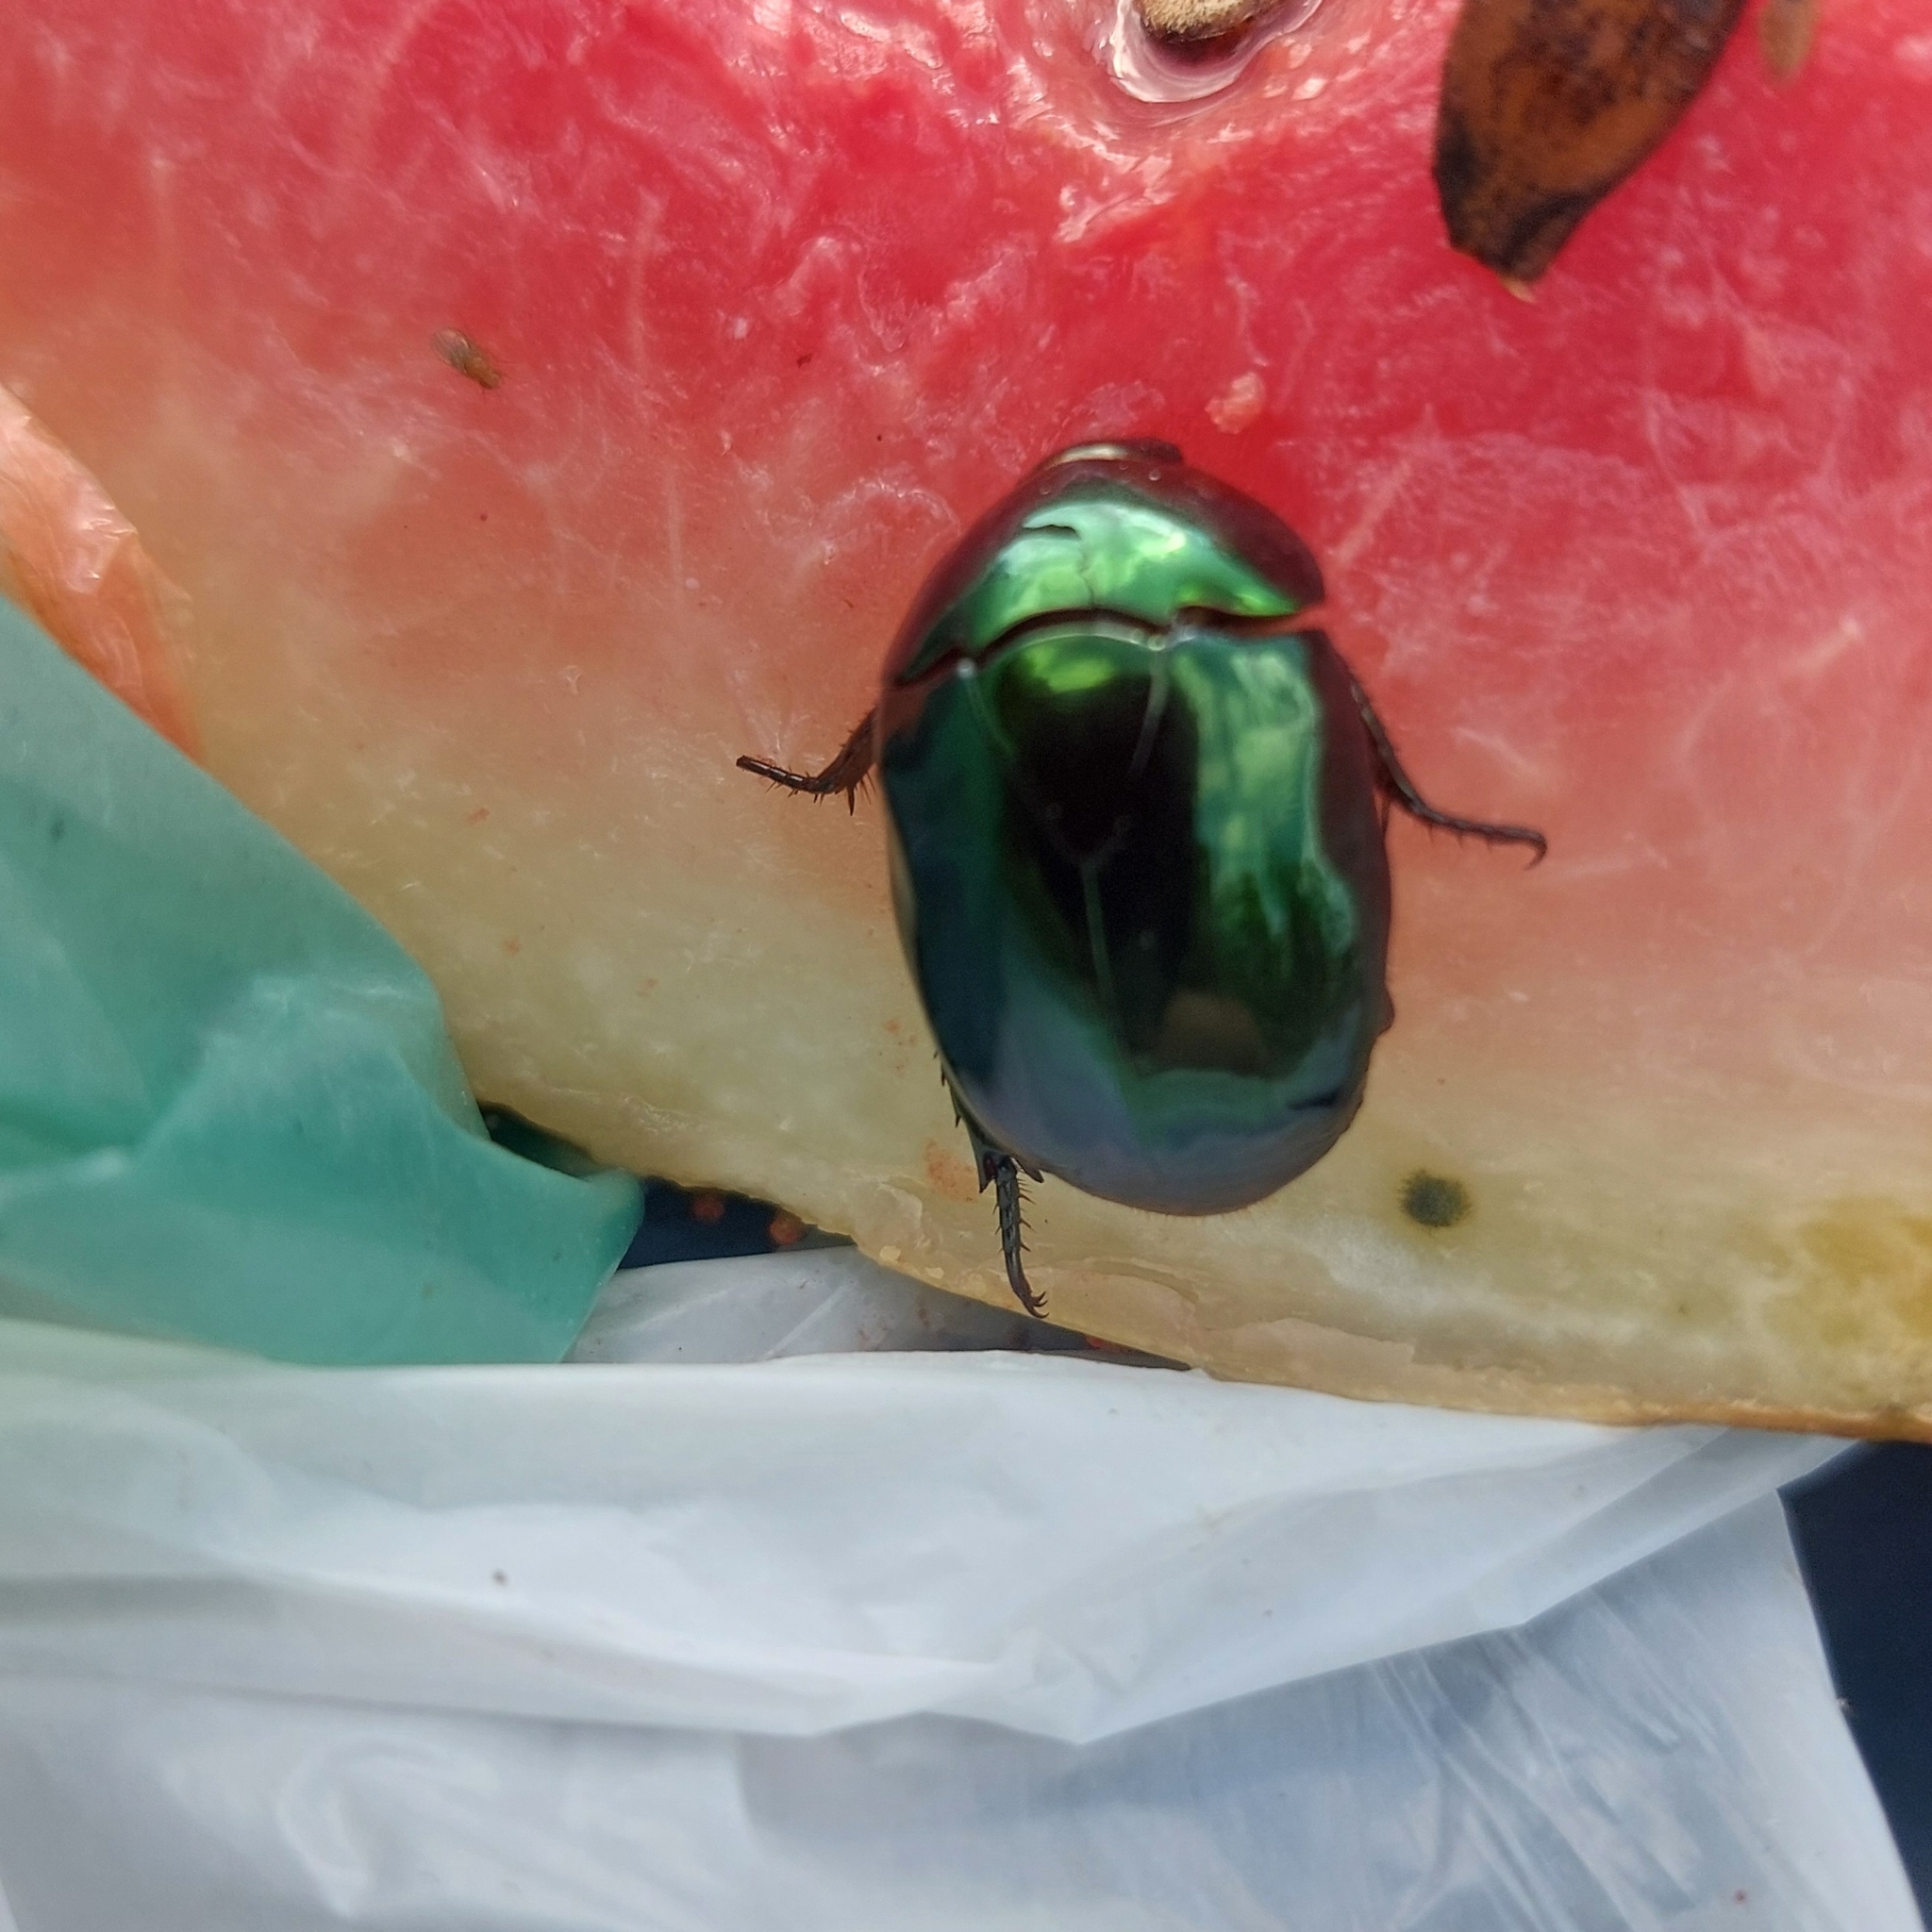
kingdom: Animalia
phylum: Arthropoda
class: Insecta
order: Coleoptera
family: Scarabaeidae
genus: Lagochile
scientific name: Lagochile emarginata
